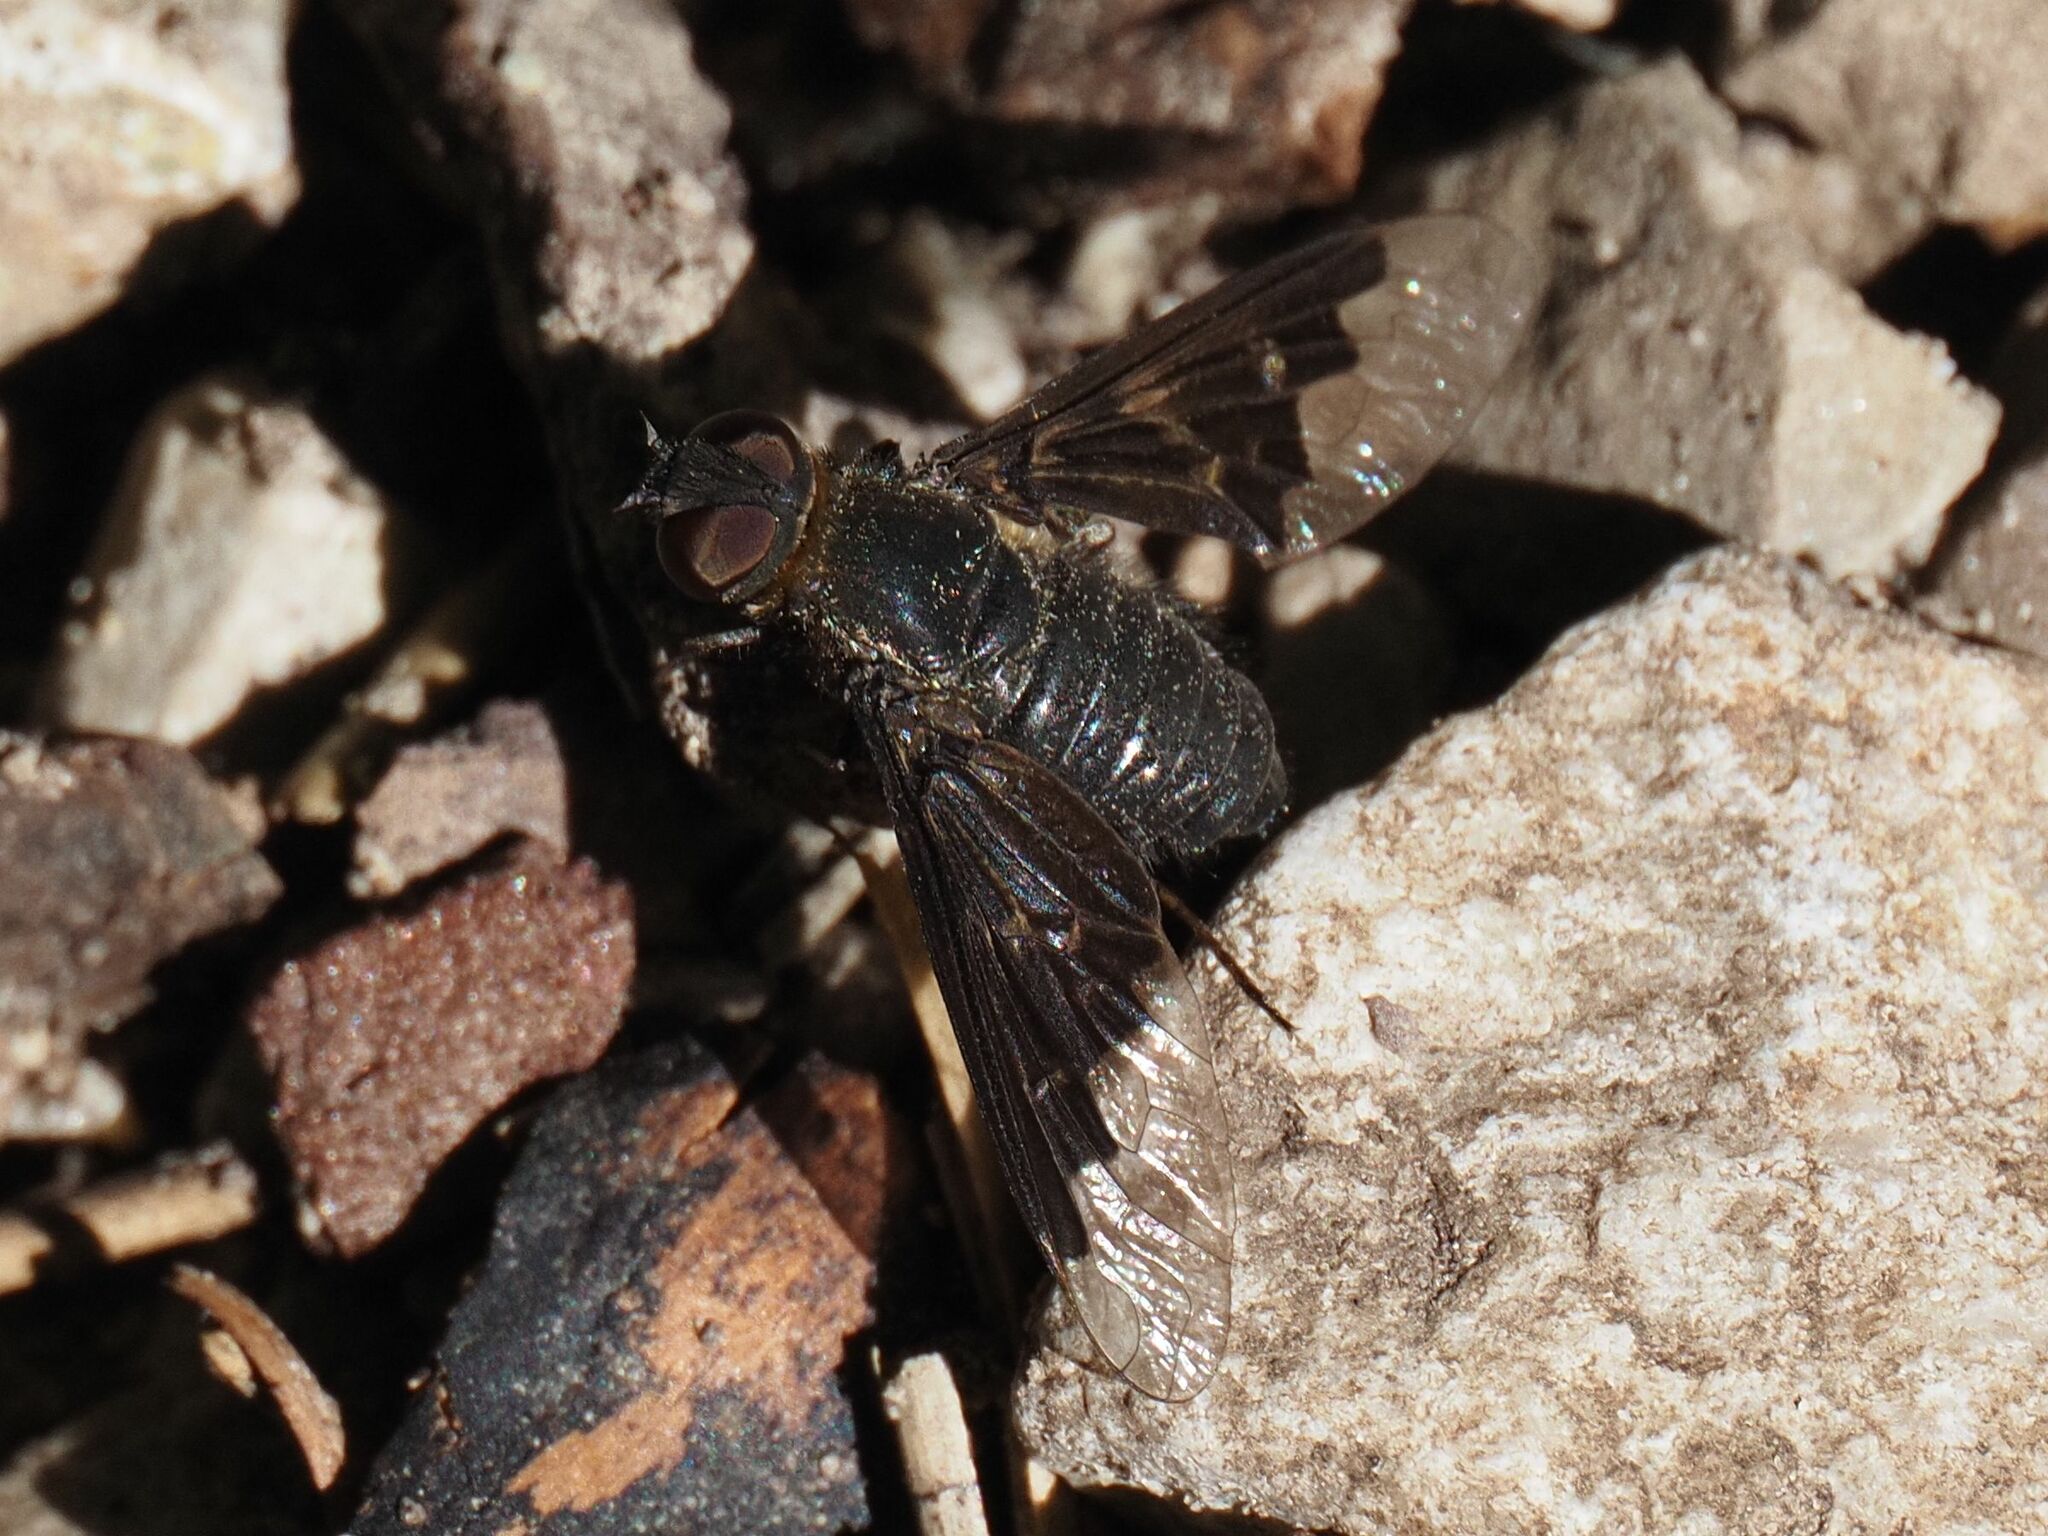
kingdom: Animalia
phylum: Arthropoda
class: Insecta
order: Diptera
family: Bombyliidae
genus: Hemipenthes
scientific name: Hemipenthes morio
